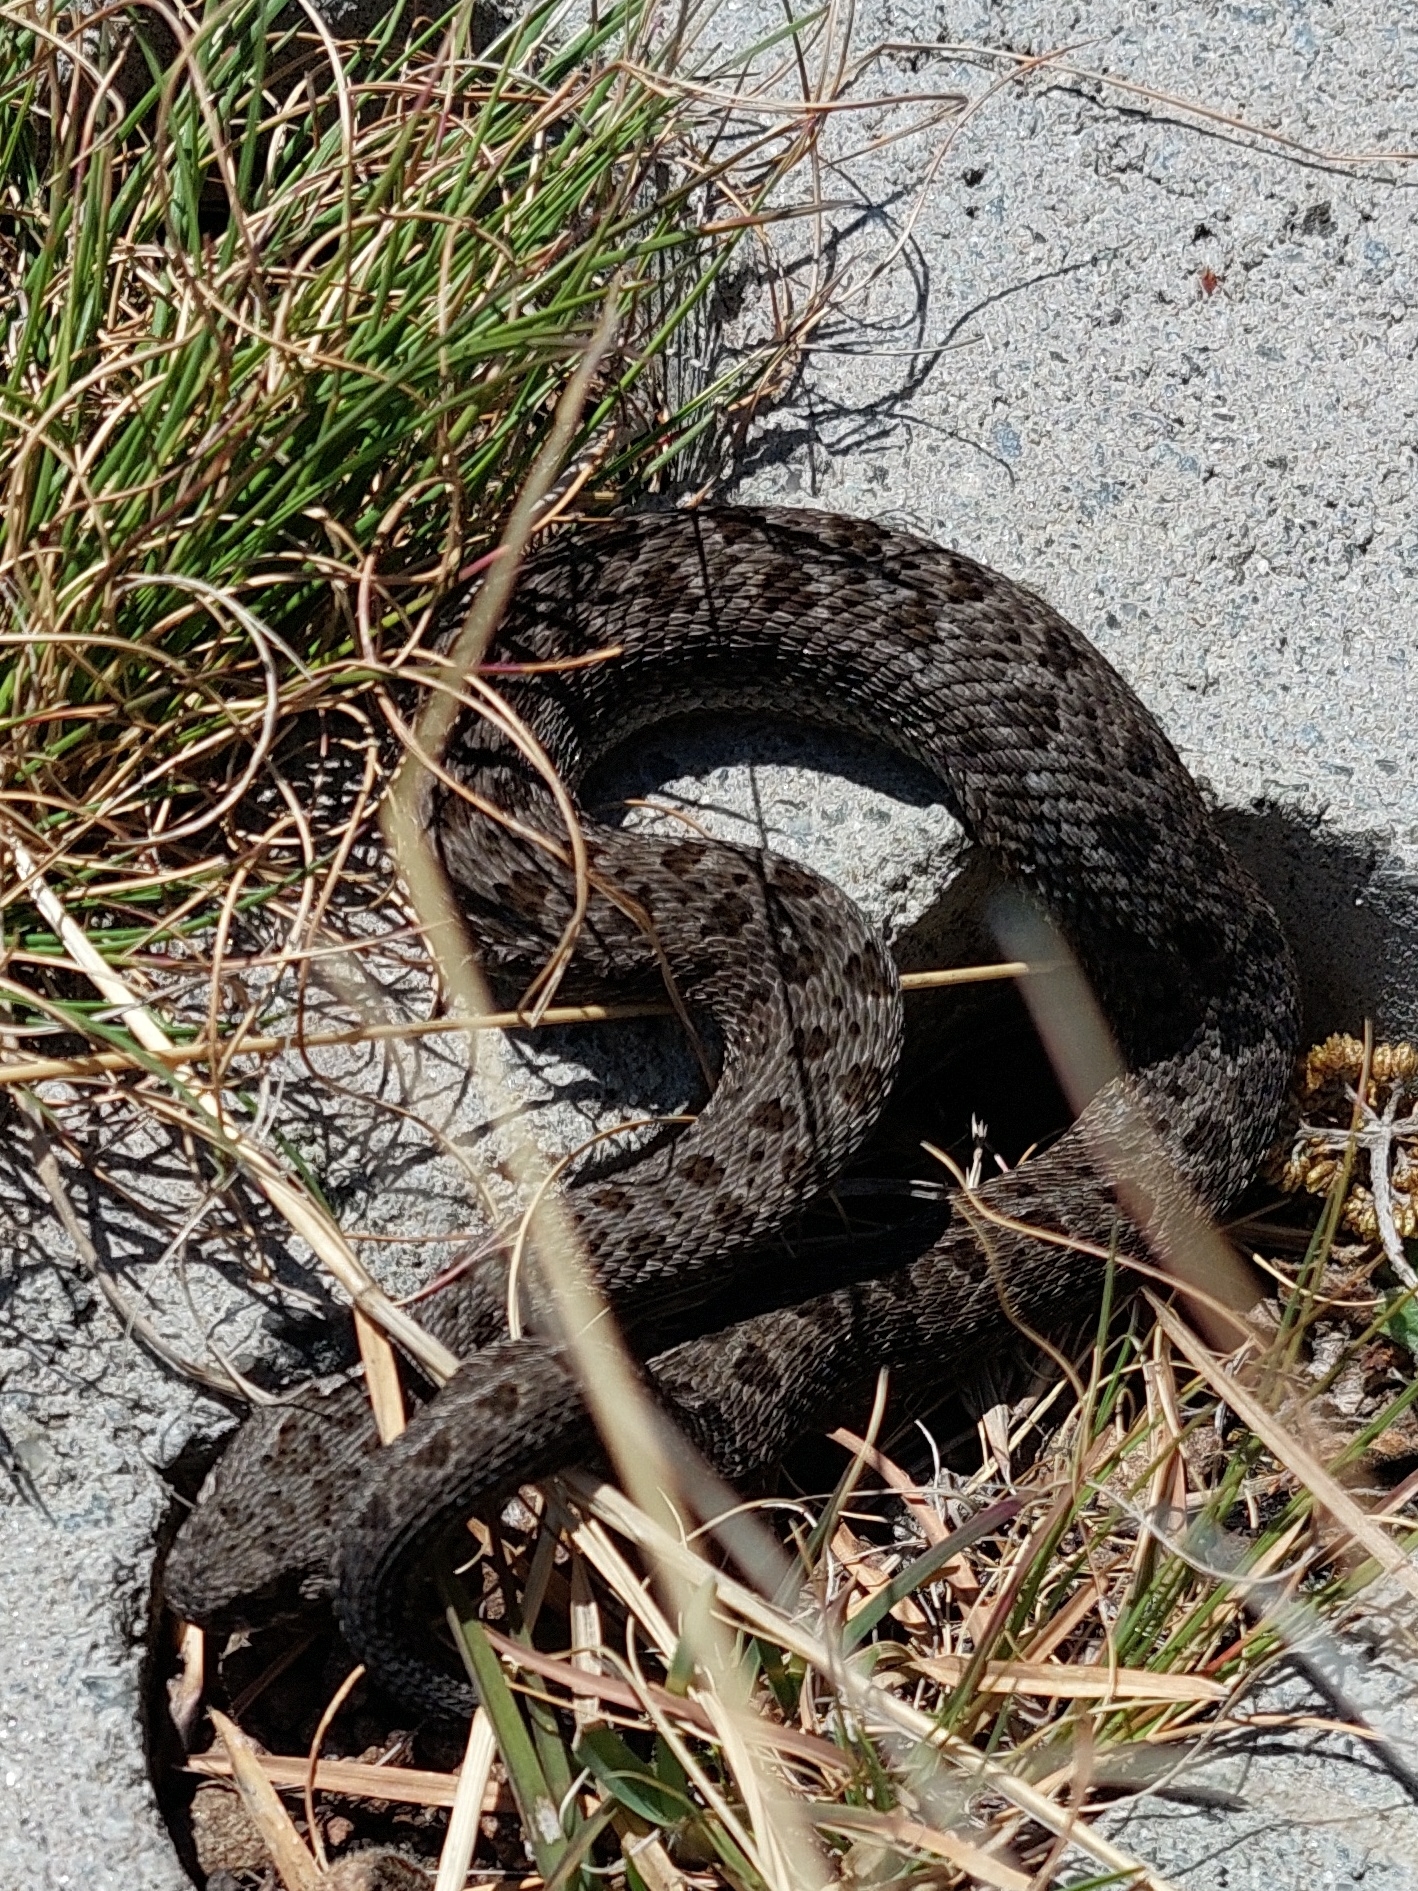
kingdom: Animalia
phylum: Chordata
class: Squamata
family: Viperidae
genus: Bitis
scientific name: Bitis atropos
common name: Mountain adder
